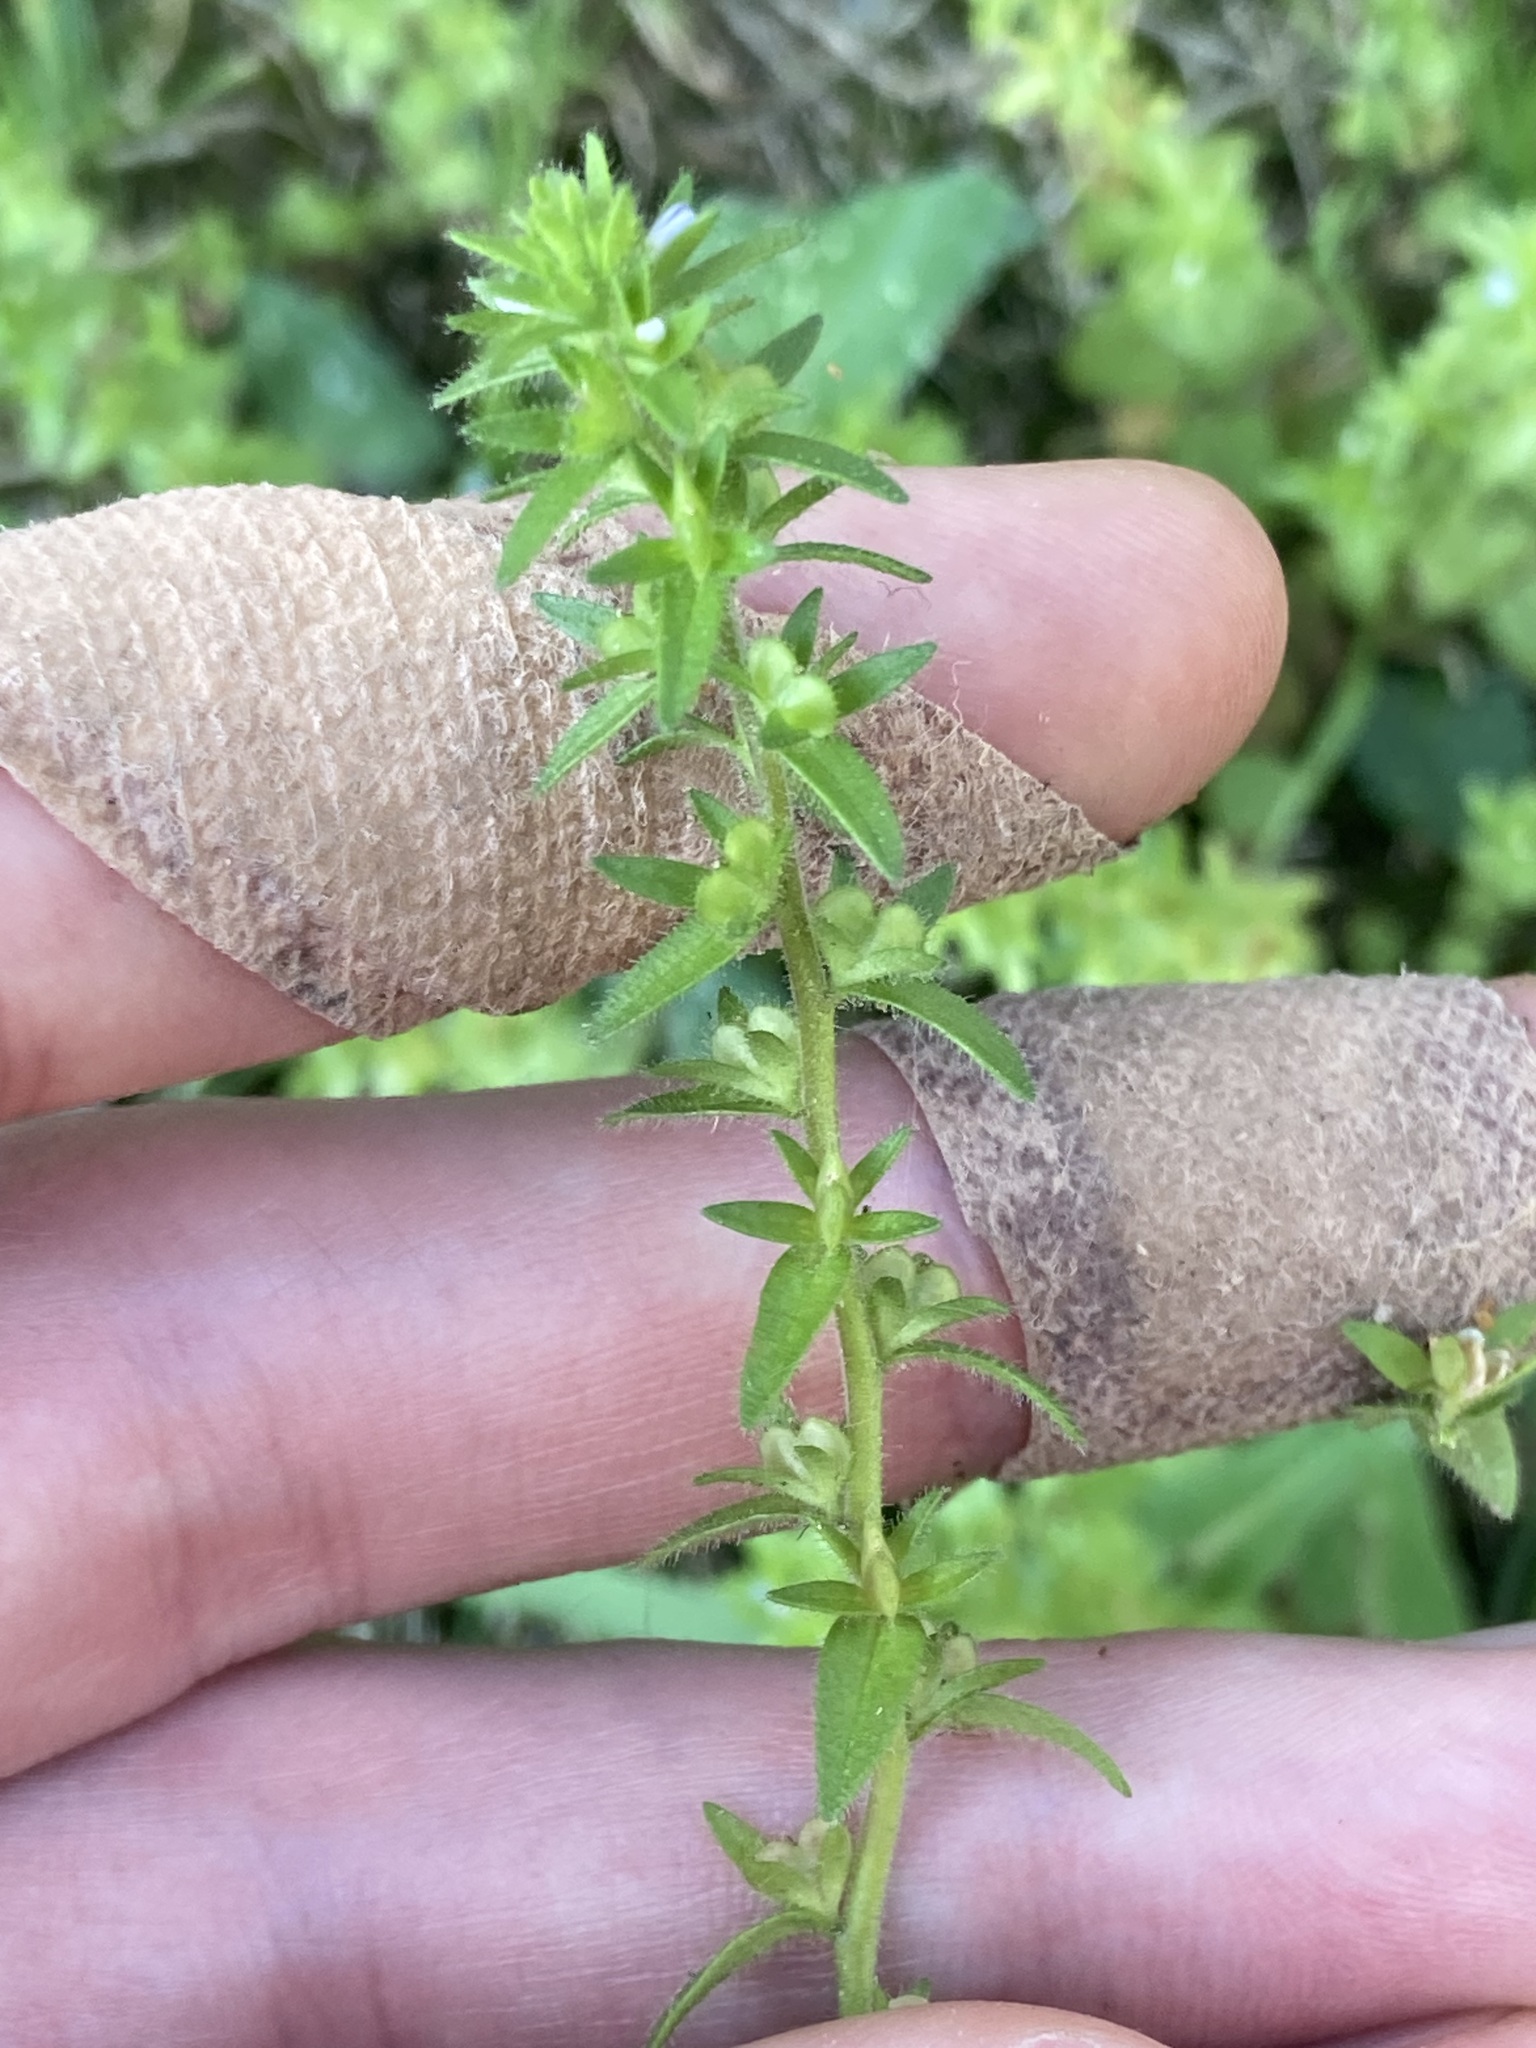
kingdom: Plantae
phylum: Tracheophyta
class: Magnoliopsida
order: Lamiales
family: Plantaginaceae
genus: Veronica
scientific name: Veronica arvensis
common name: Corn speedwell
